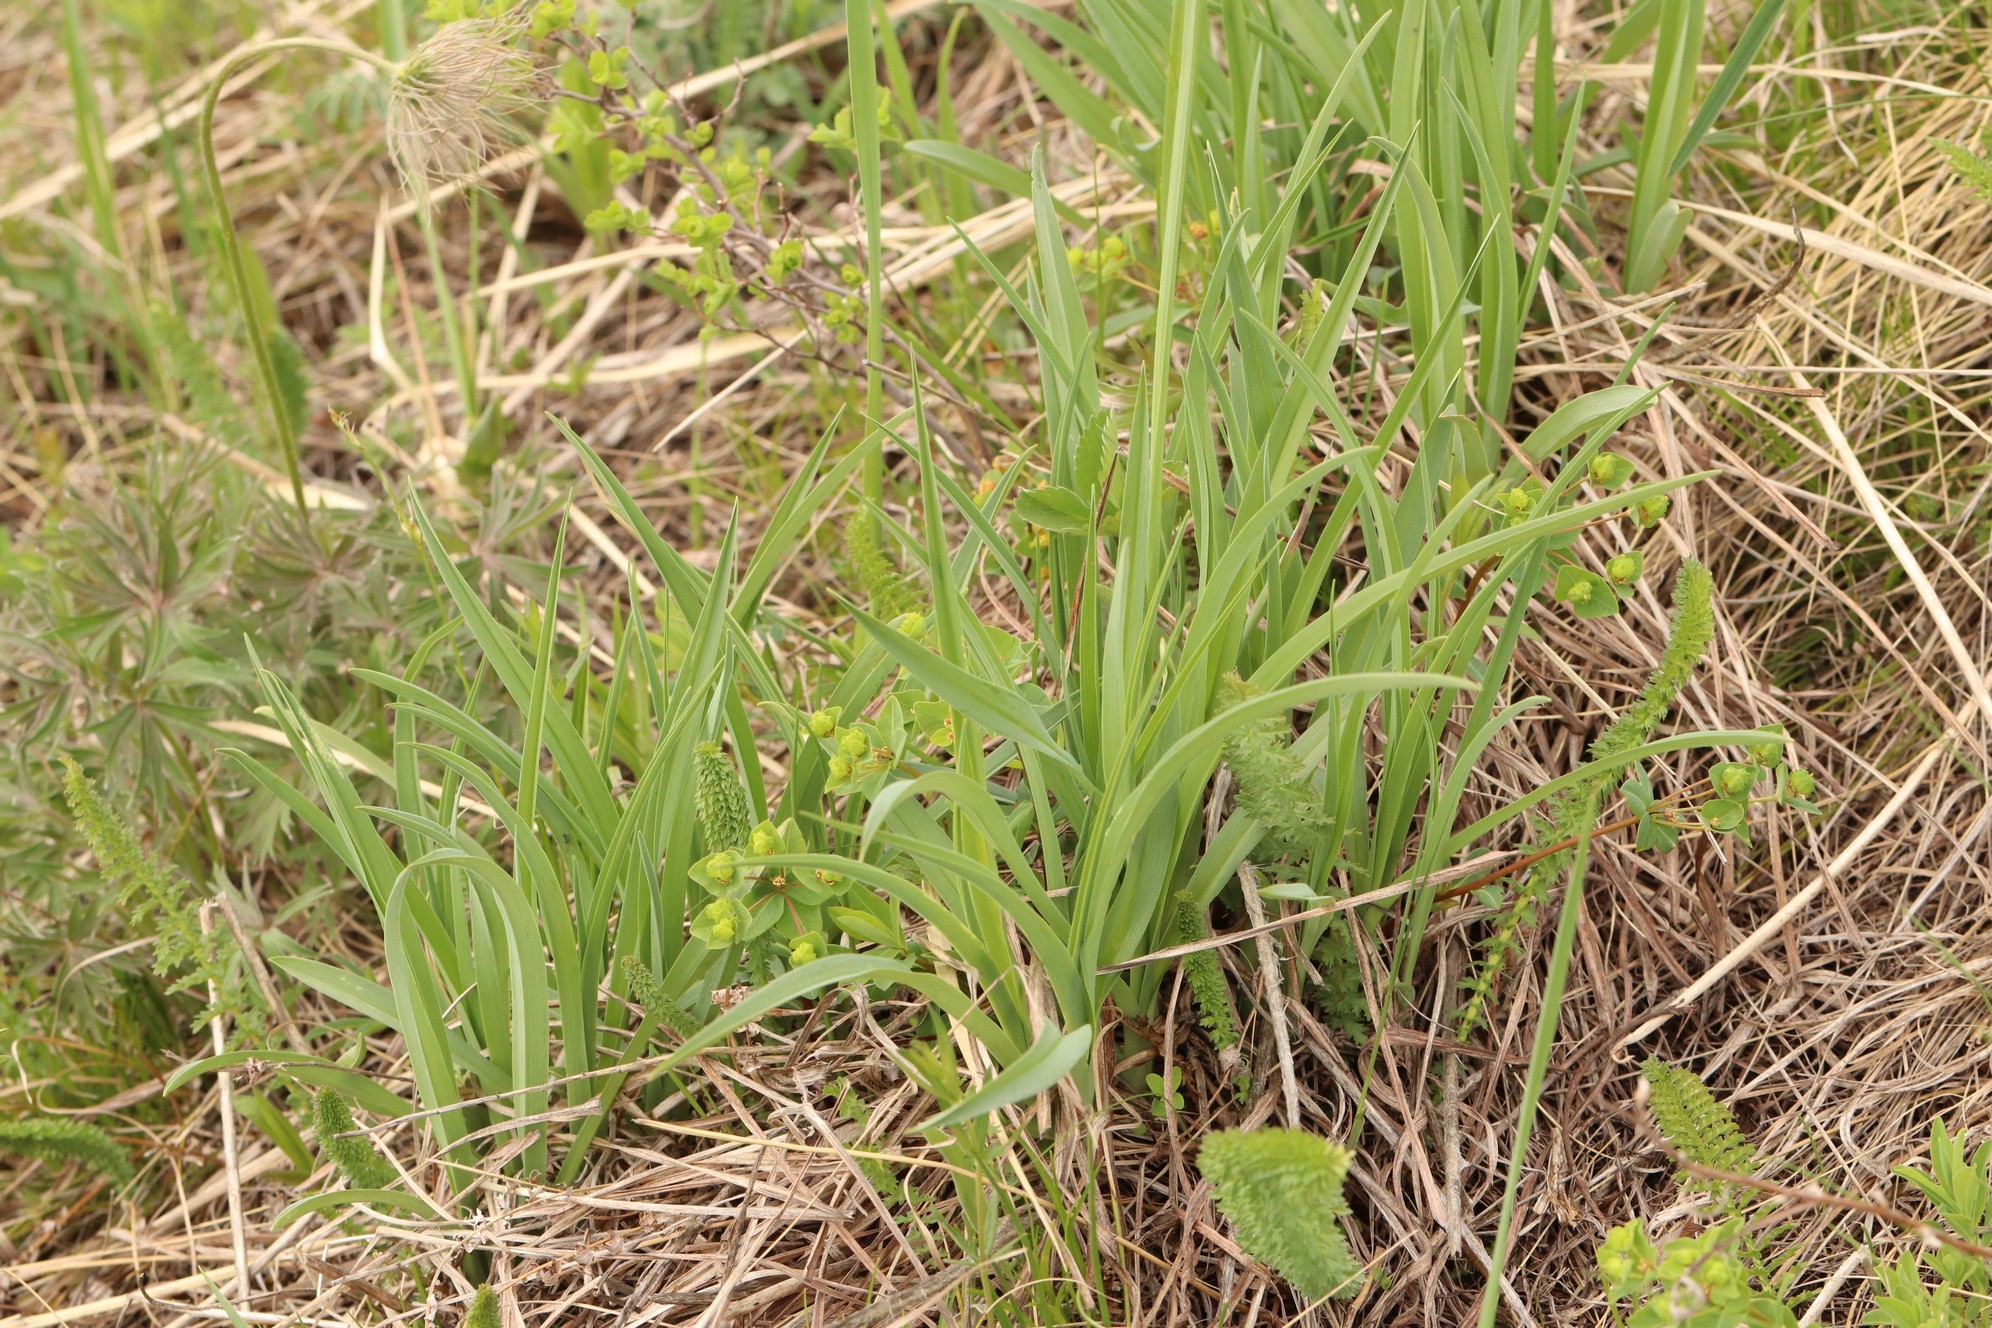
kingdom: Plantae
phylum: Tracheophyta
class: Liliopsida
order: Asparagales
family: Asphodelaceae
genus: Hemerocallis
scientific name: Hemerocallis minor
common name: Small daylily
